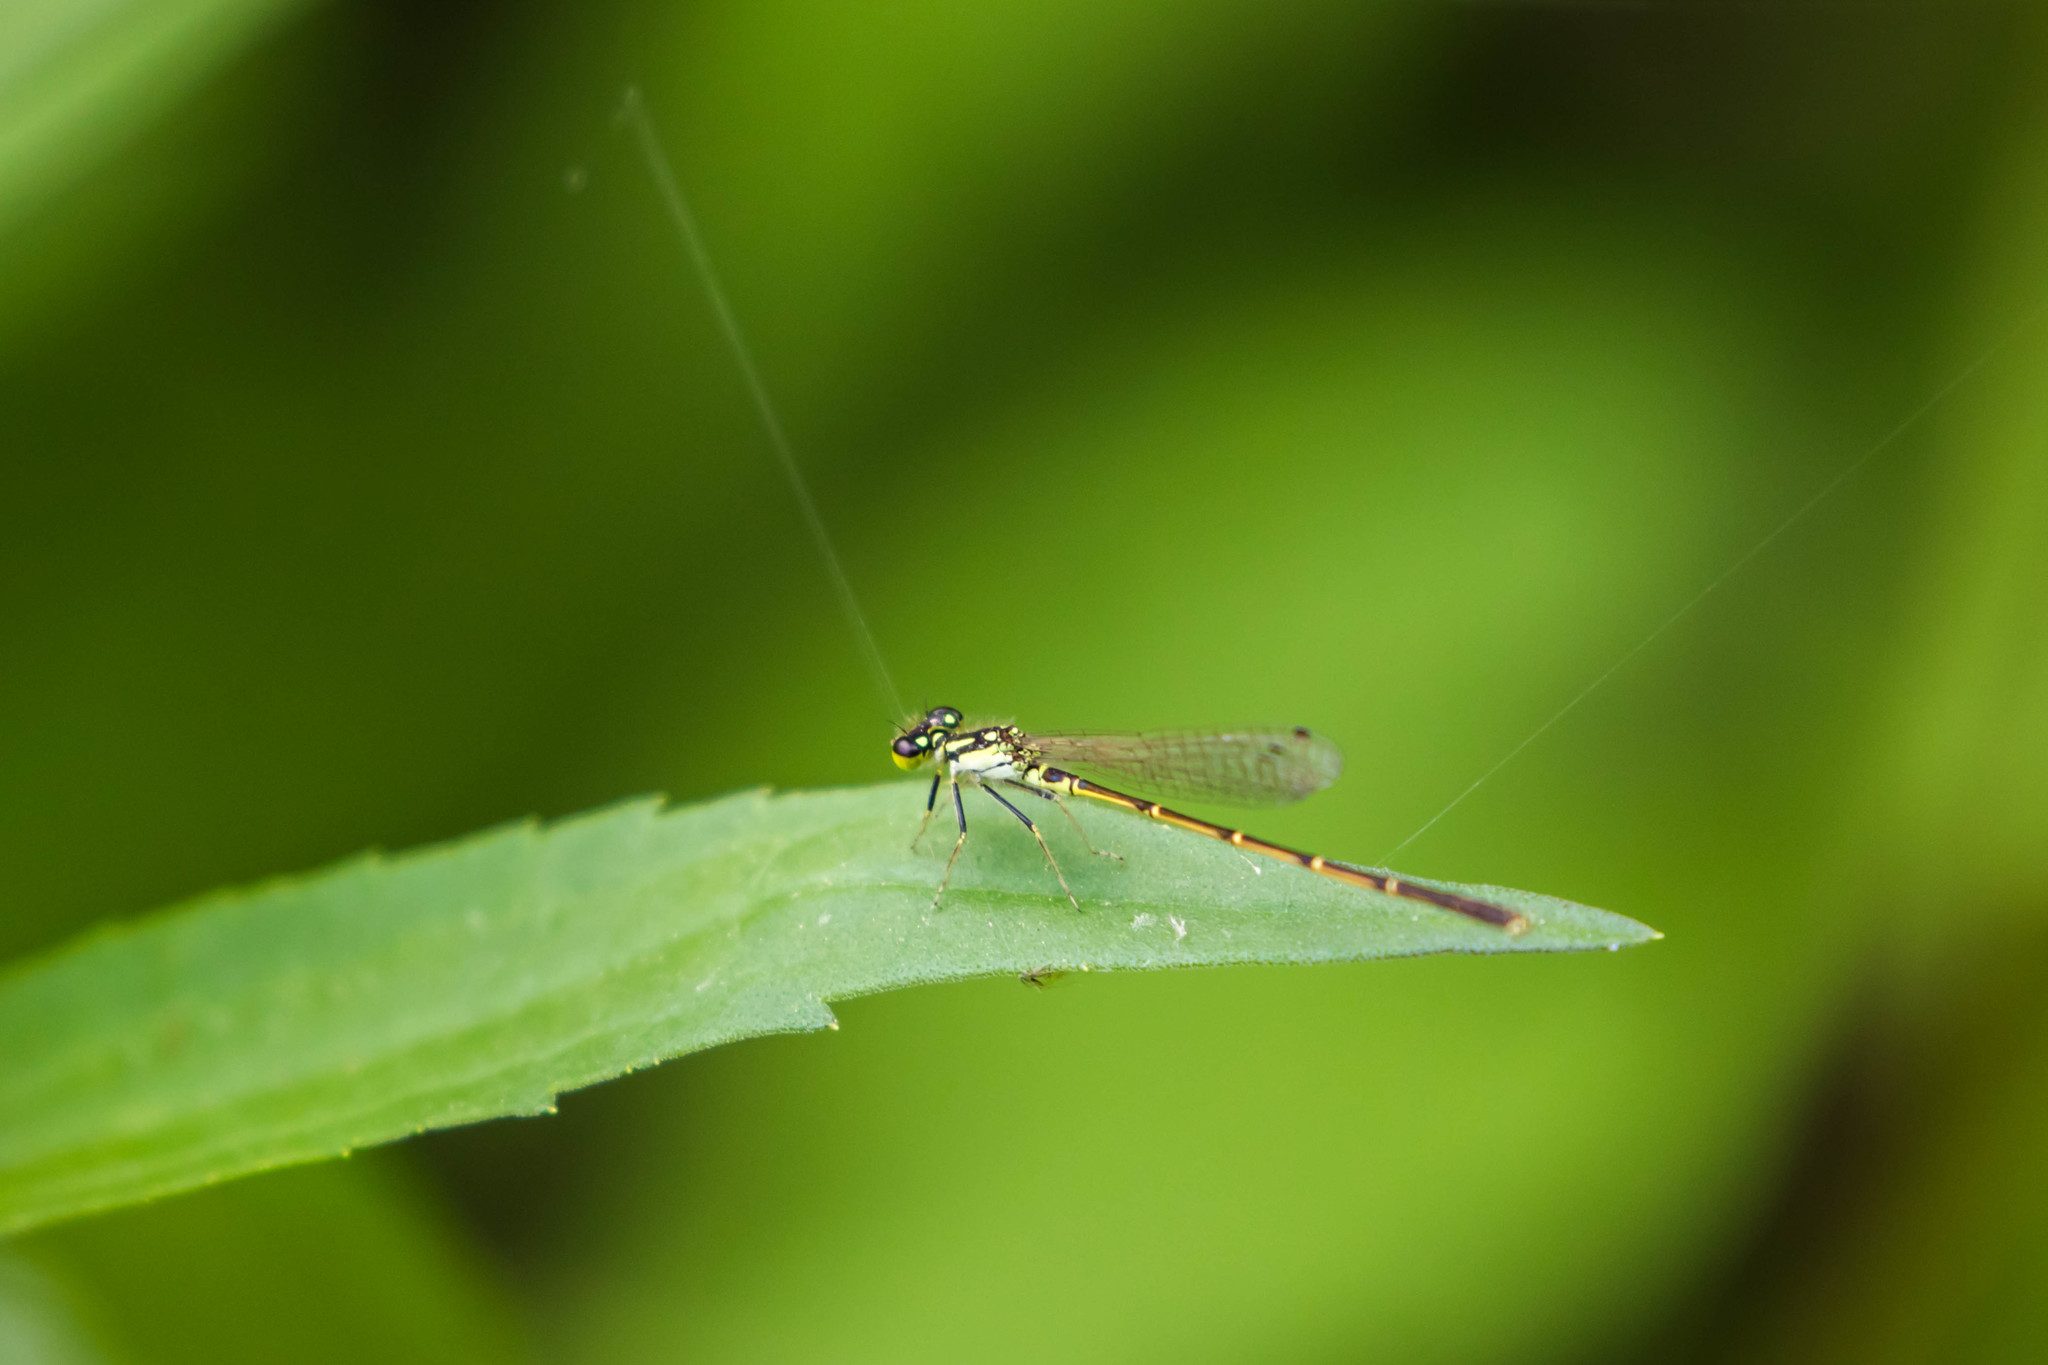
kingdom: Animalia
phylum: Arthropoda
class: Insecta
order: Odonata
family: Coenagrionidae
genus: Ischnura
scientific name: Ischnura posita
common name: Fragile forktail
